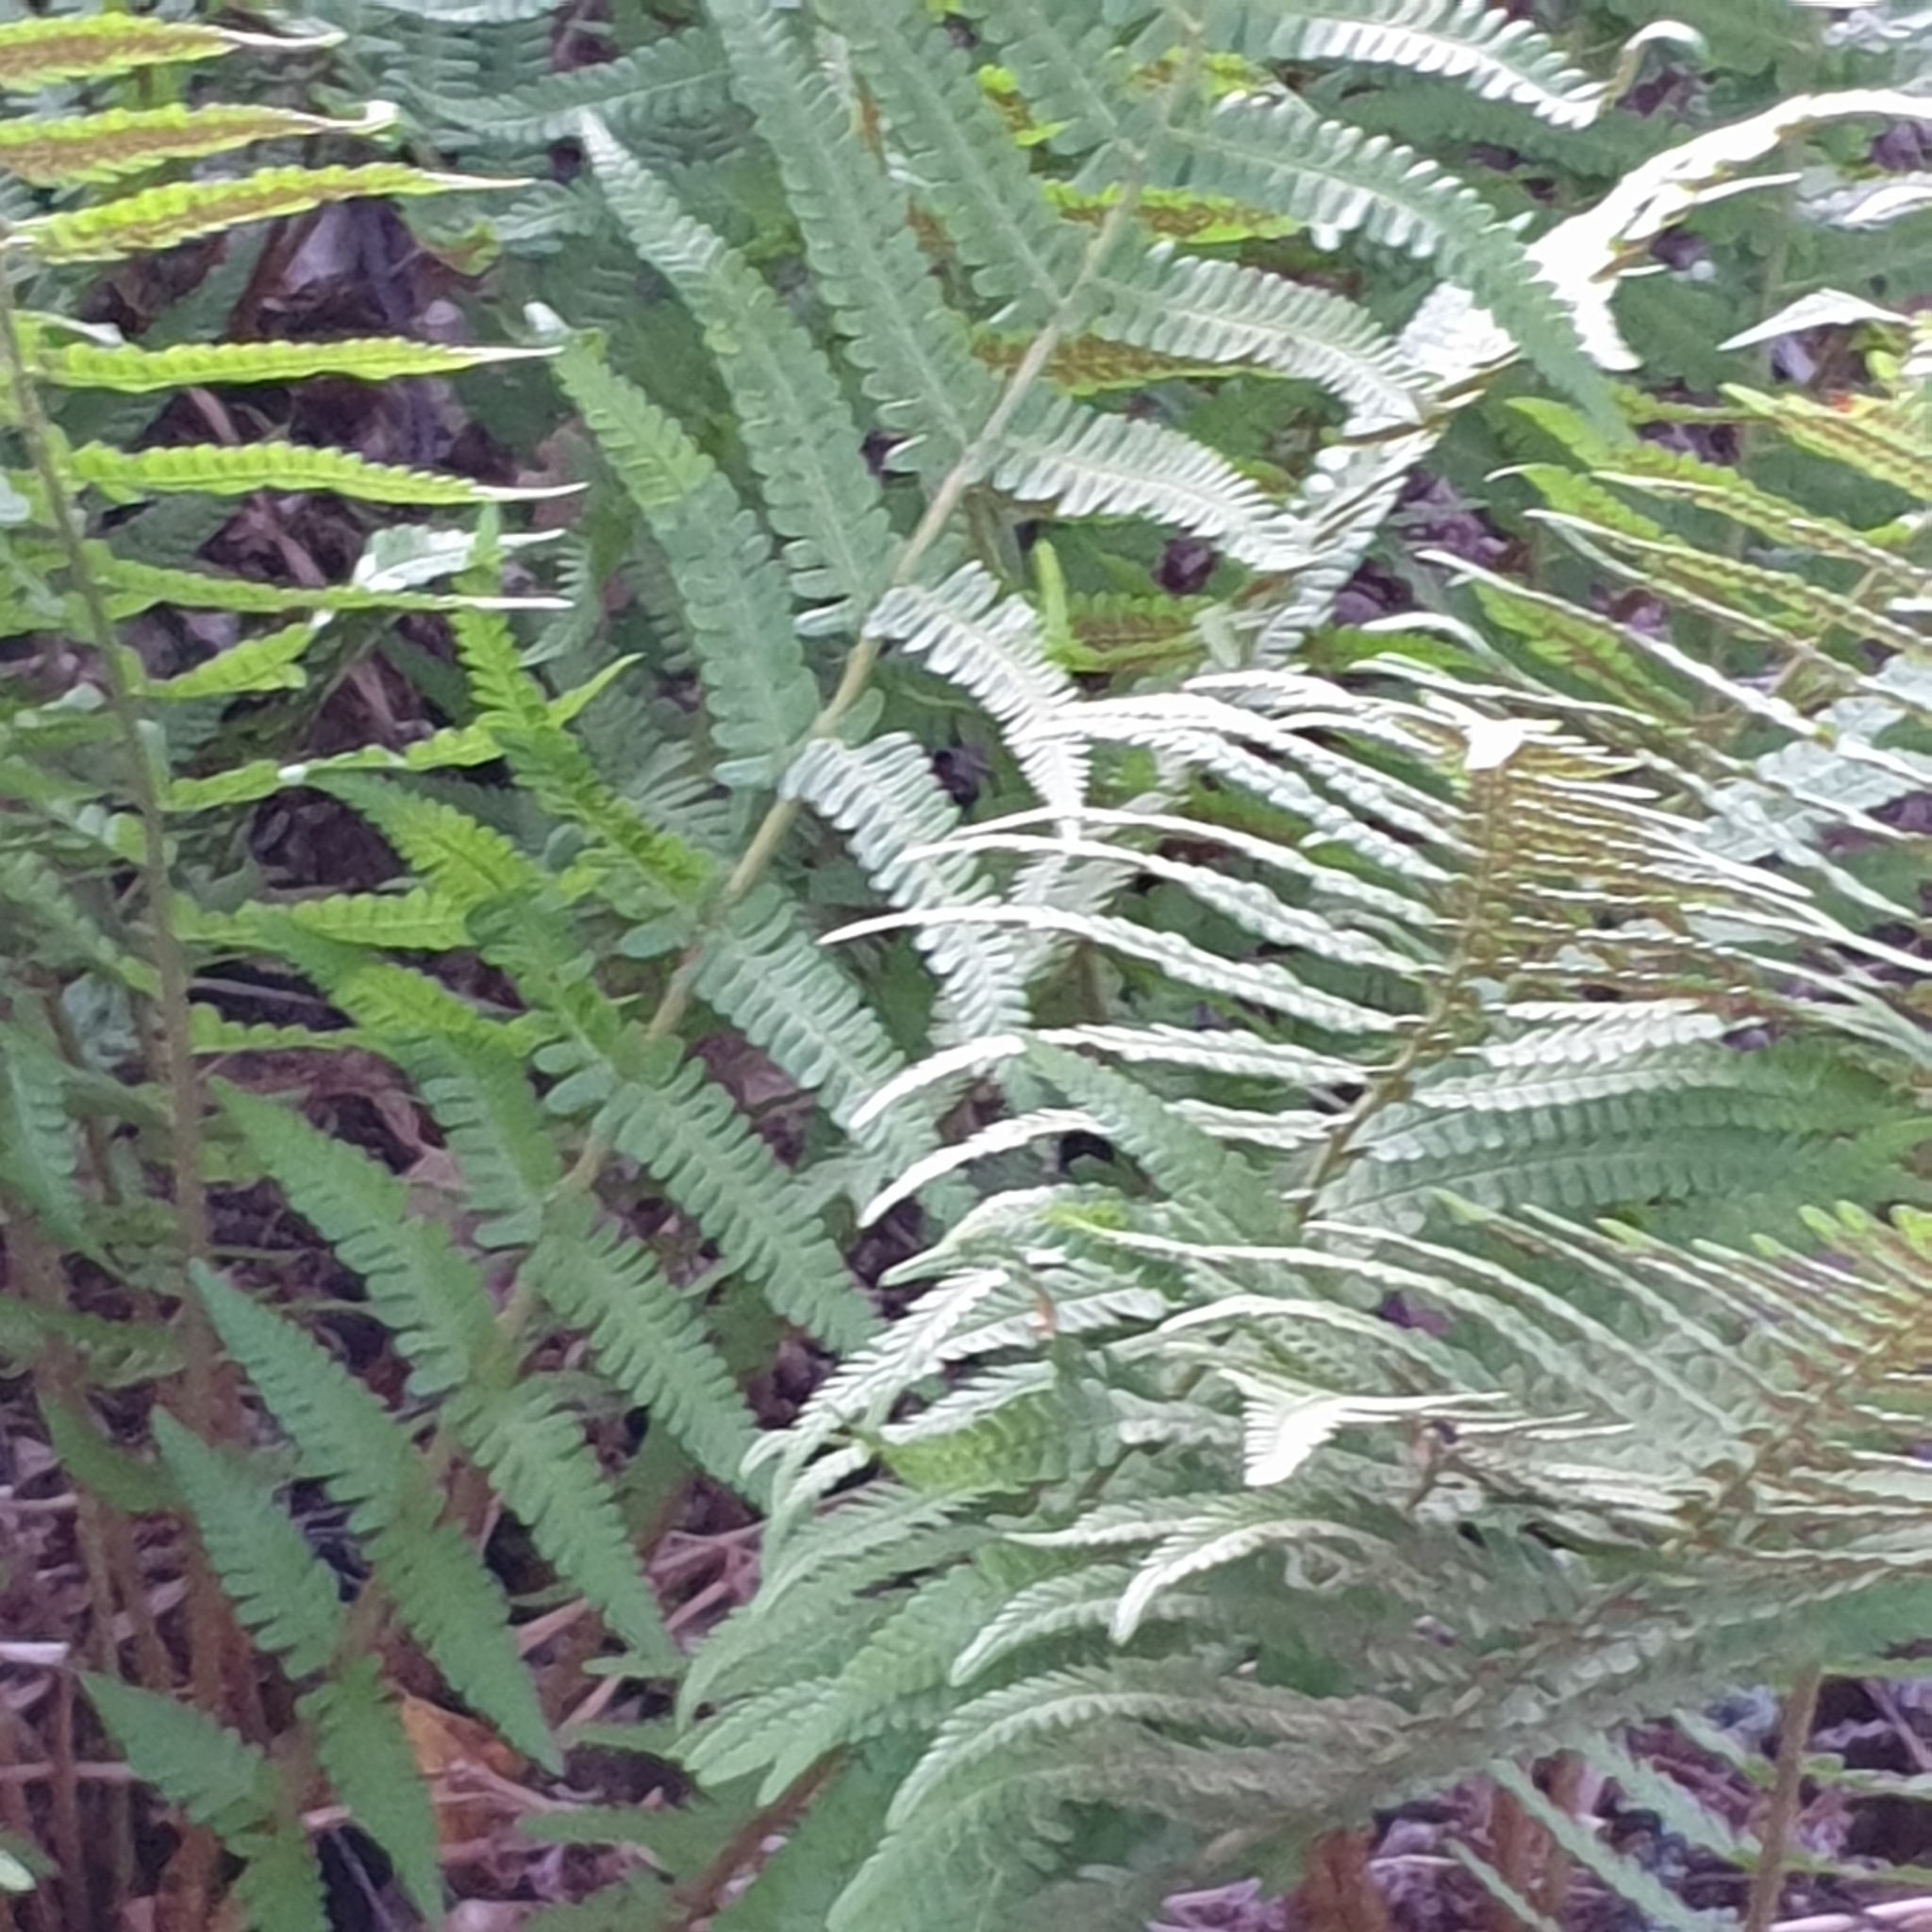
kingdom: Plantae
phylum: Tracheophyta
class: Polypodiopsida
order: Polypodiales
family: Dryopteridaceae
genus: Dryopteris
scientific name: Dryopteris filix-mas
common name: Male fern
